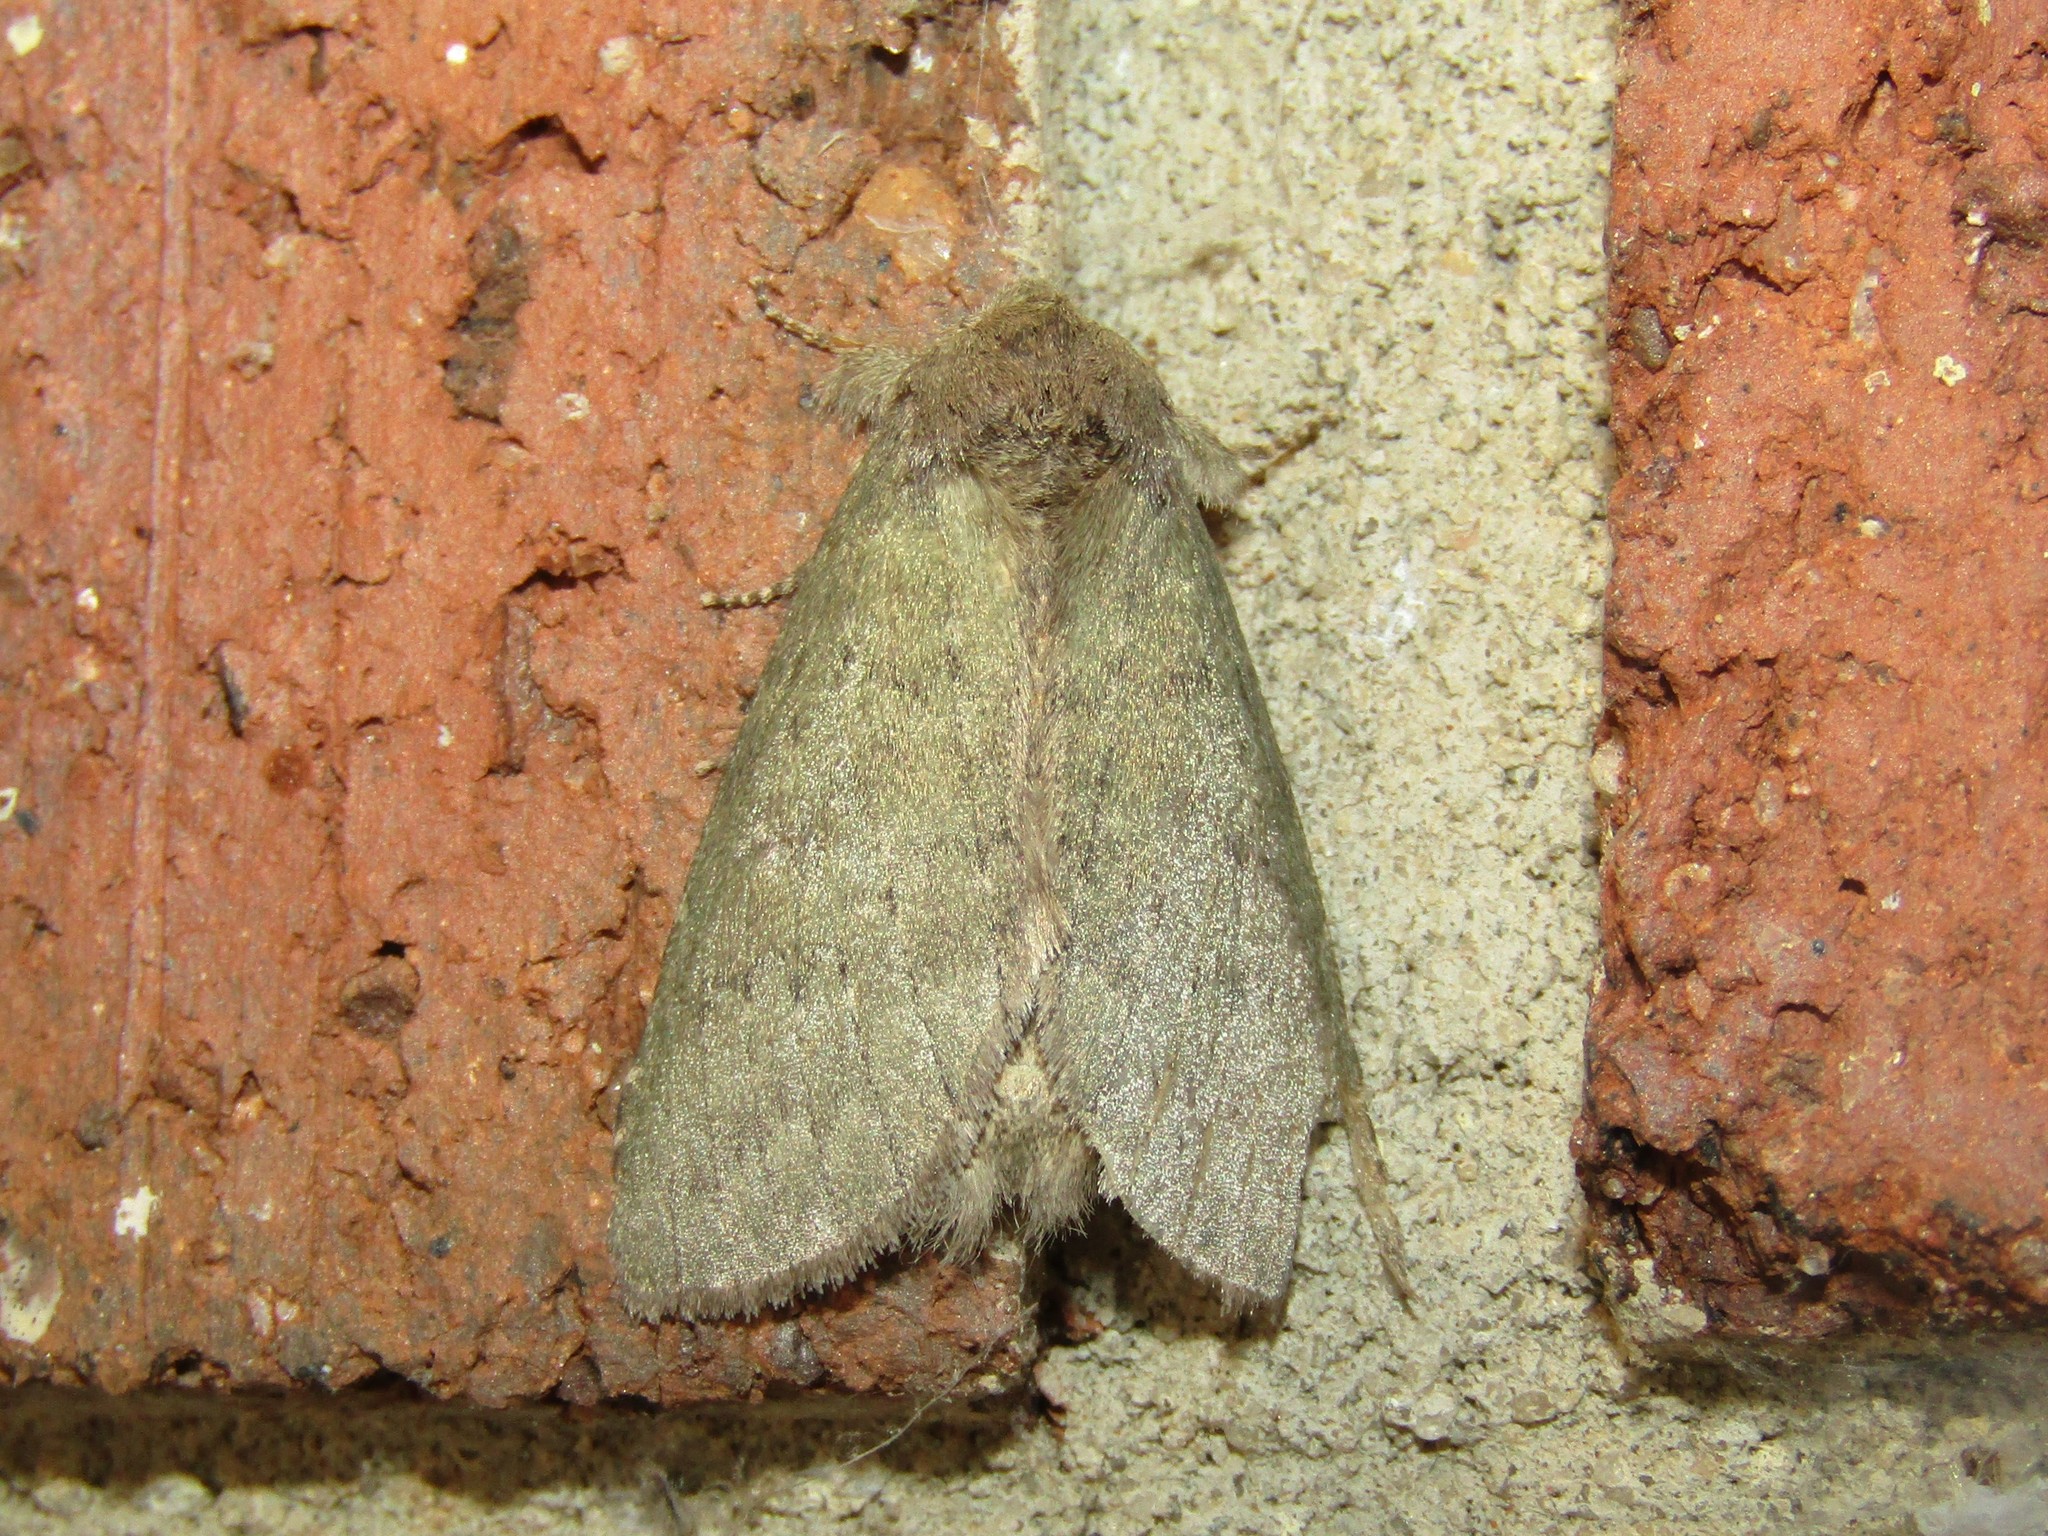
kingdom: Animalia
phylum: Arthropoda
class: Insecta
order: Lepidoptera
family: Notodontidae
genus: Misogada
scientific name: Misogada unicolor
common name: Drab prominent
